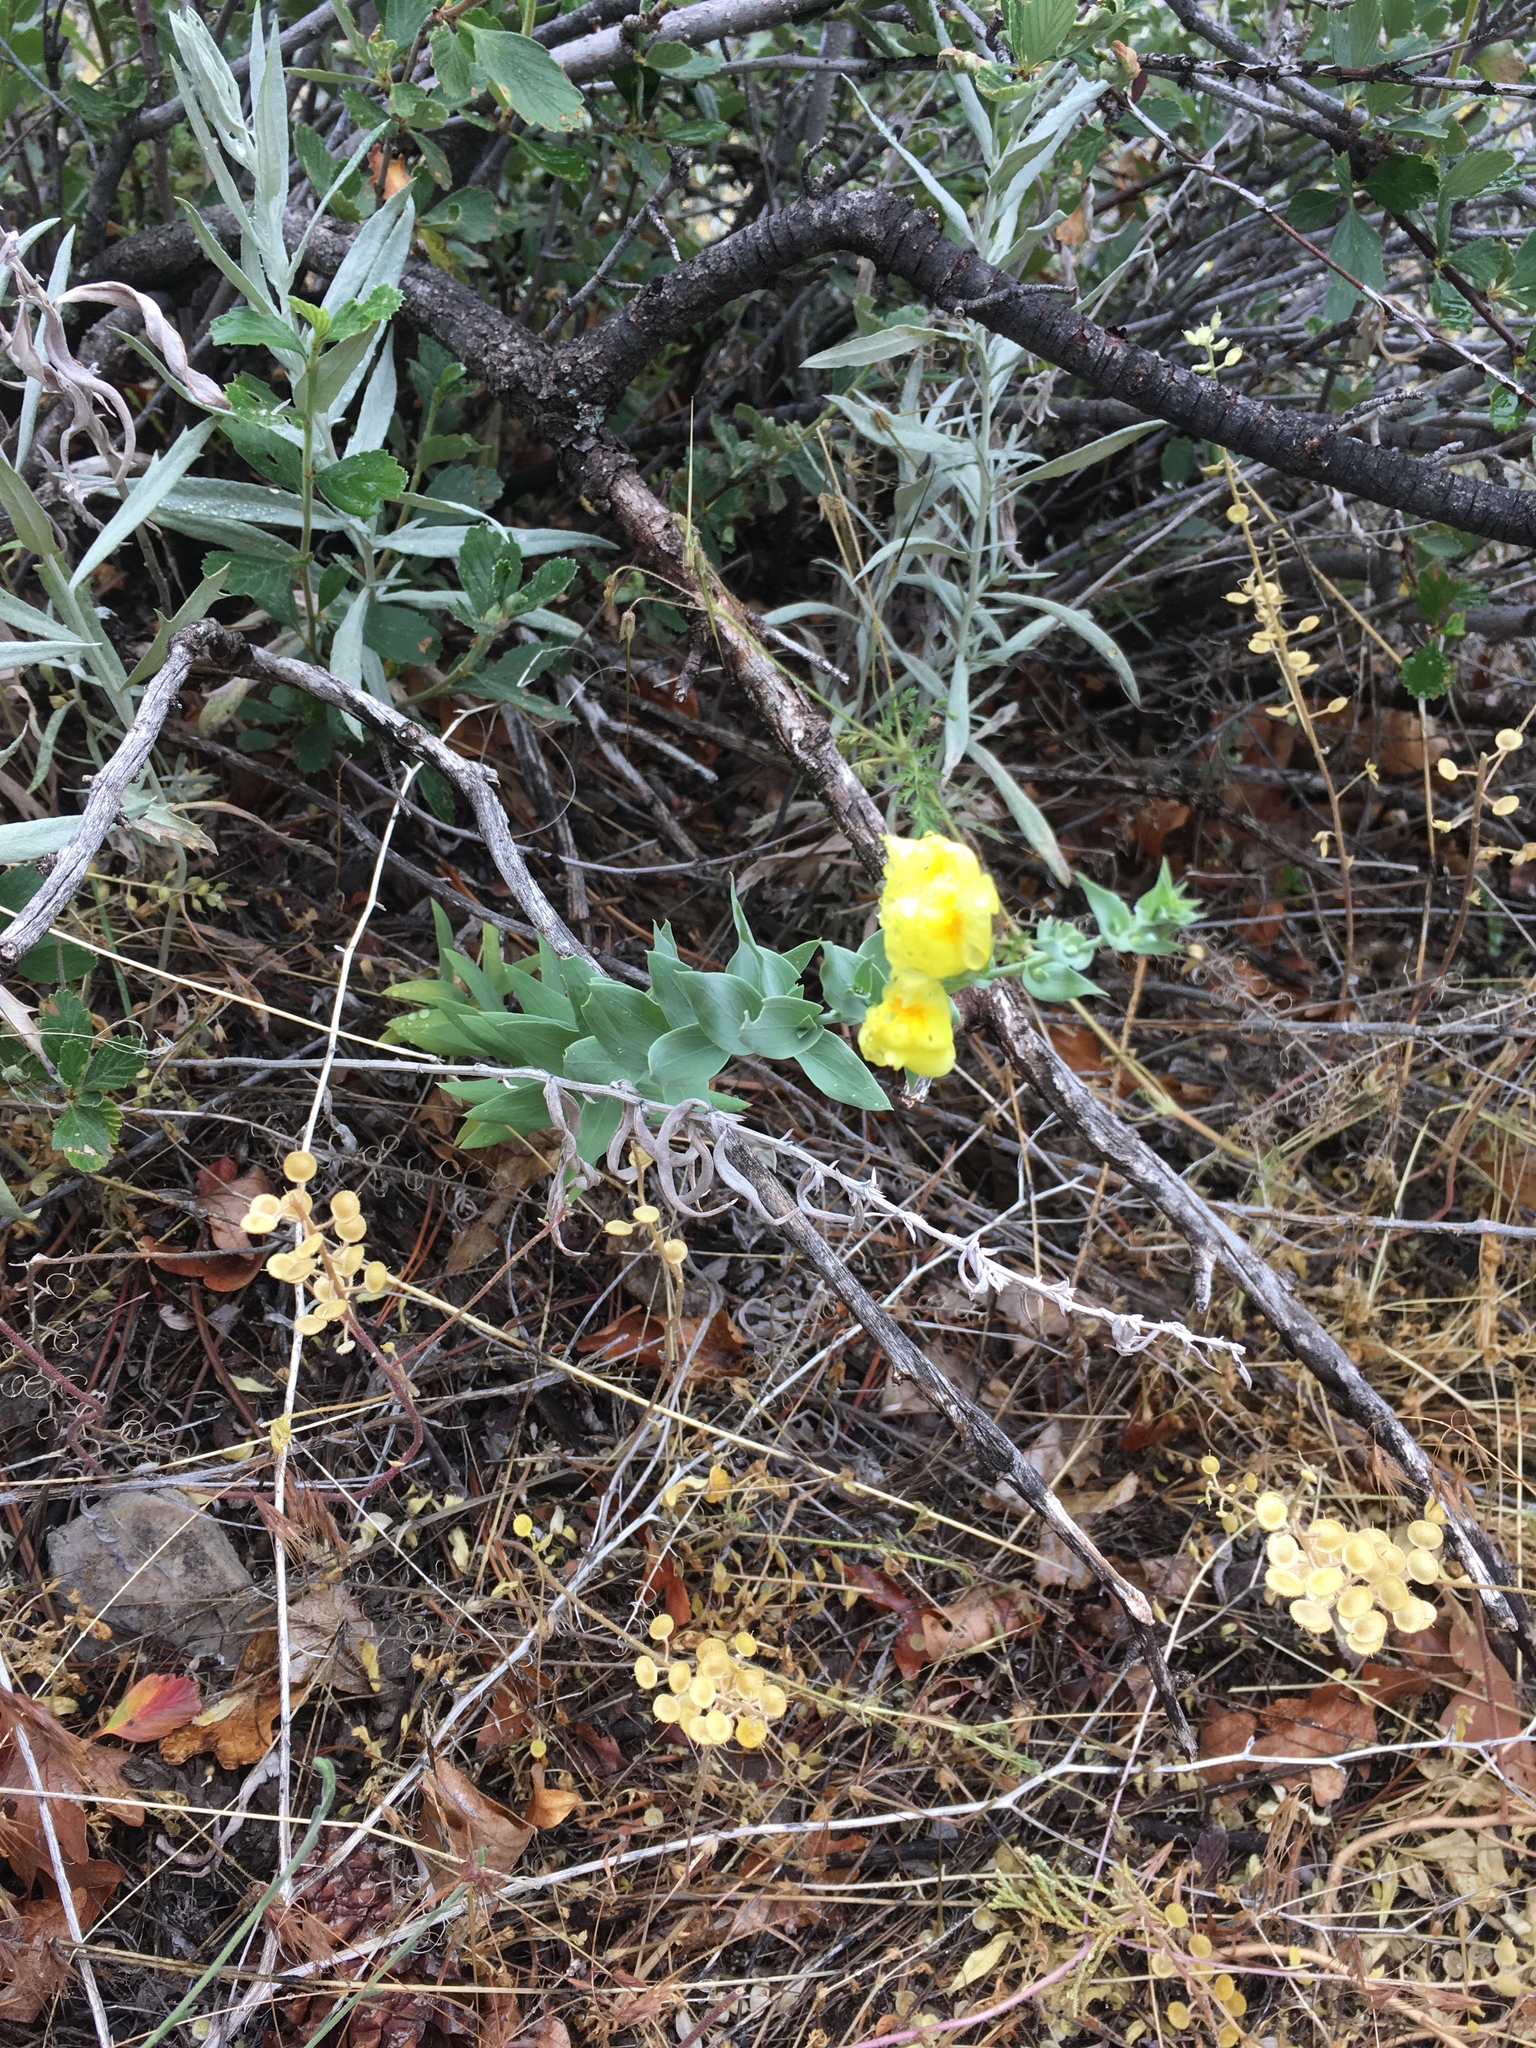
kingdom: Plantae
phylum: Tracheophyta
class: Magnoliopsida
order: Lamiales
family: Plantaginaceae
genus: Linaria
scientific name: Linaria dalmatica
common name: Dalmatian toadflax
